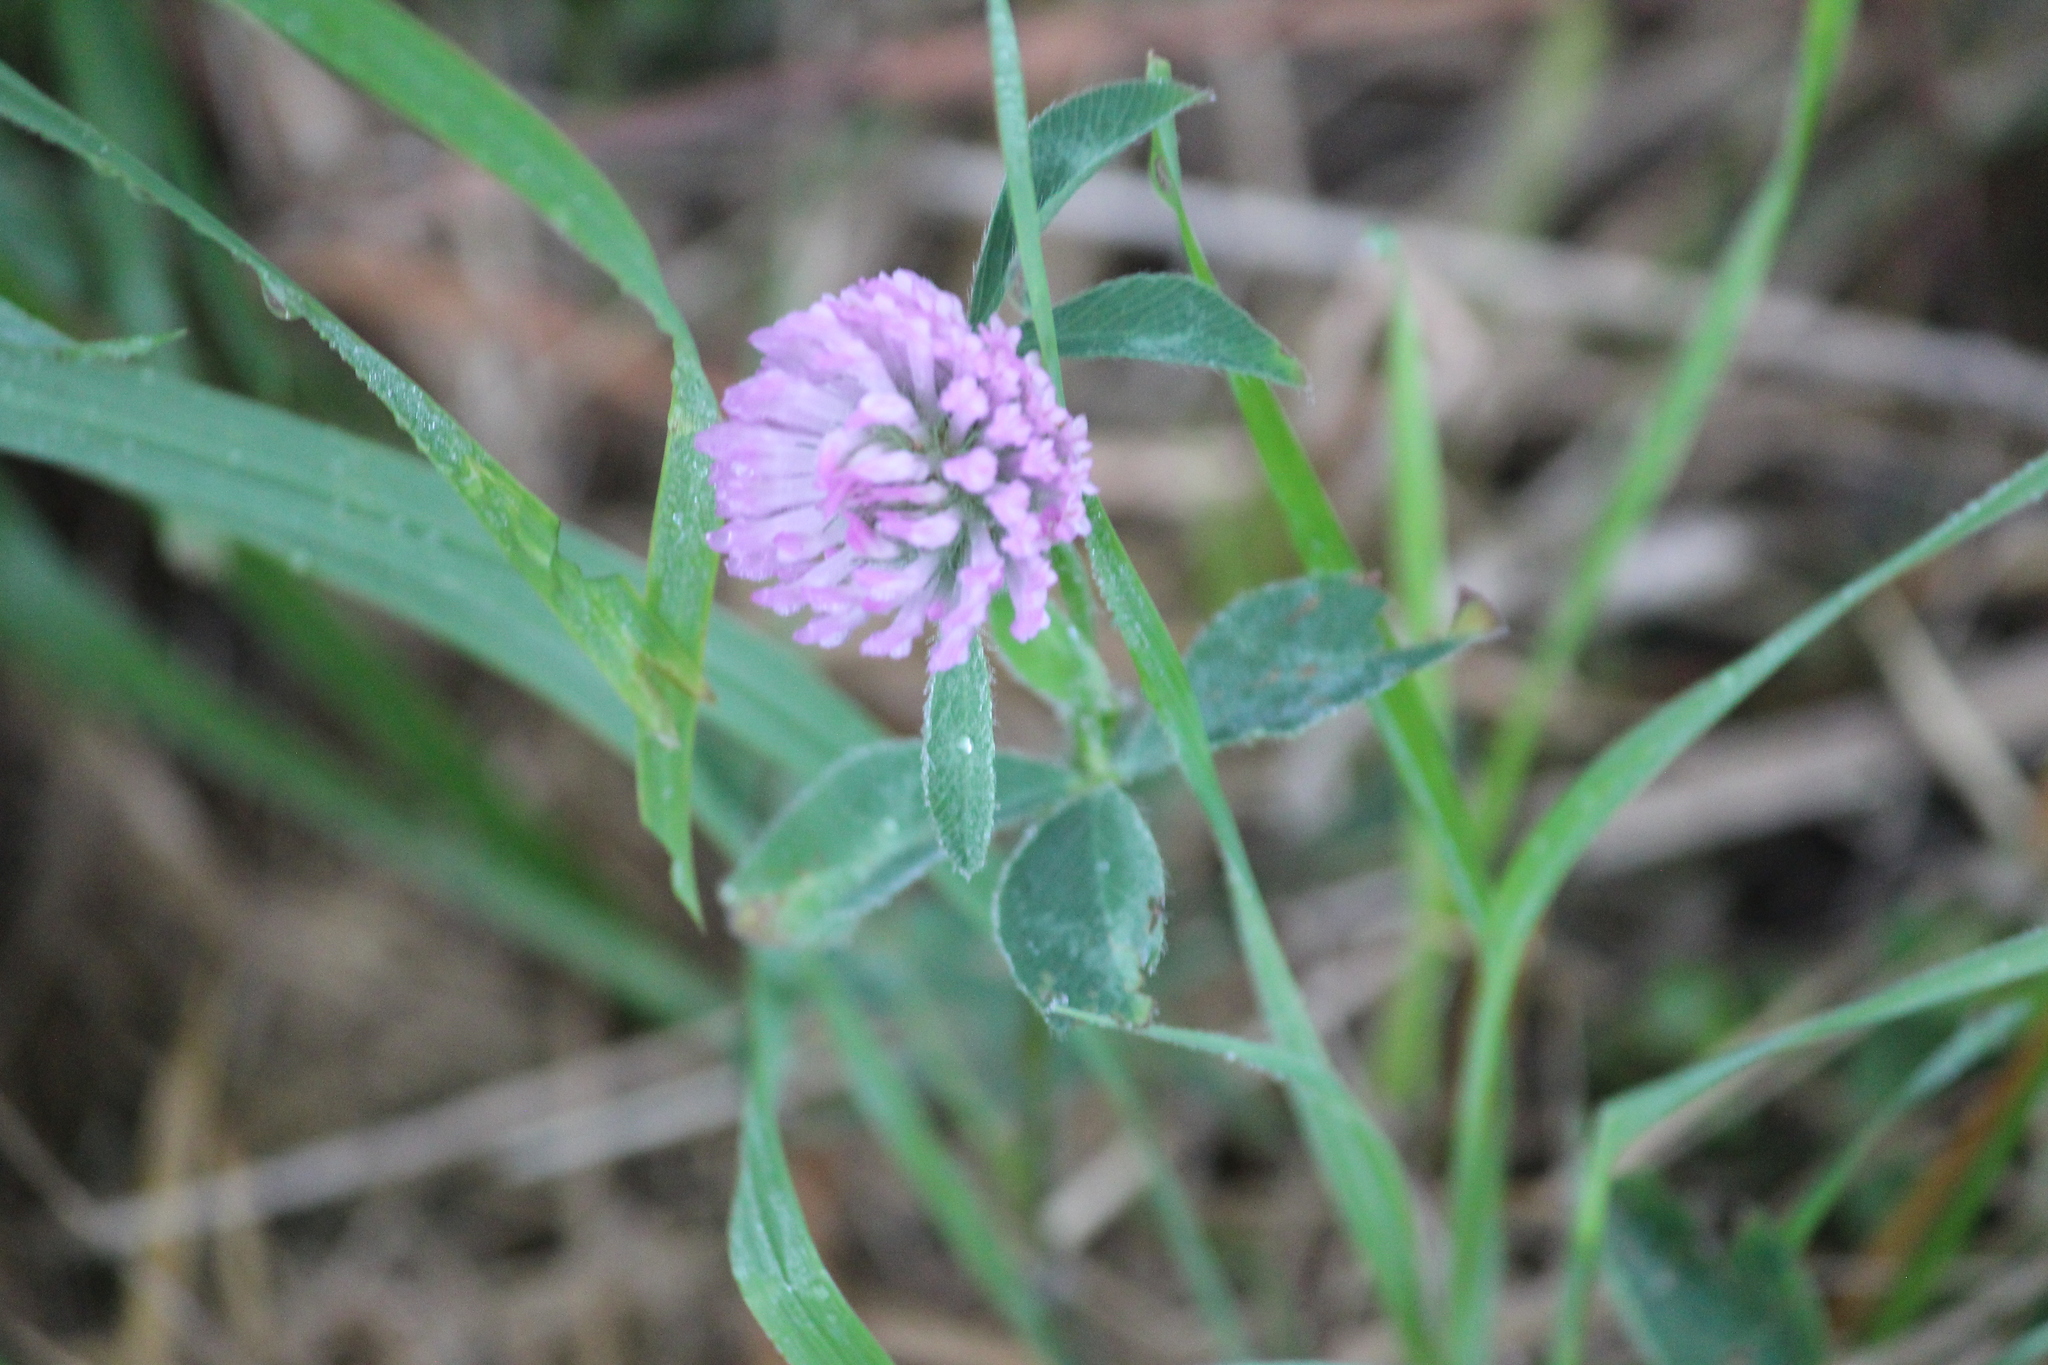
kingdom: Plantae
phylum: Tracheophyta
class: Magnoliopsida
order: Fabales
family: Fabaceae
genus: Trifolium
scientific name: Trifolium pratense
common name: Red clover
